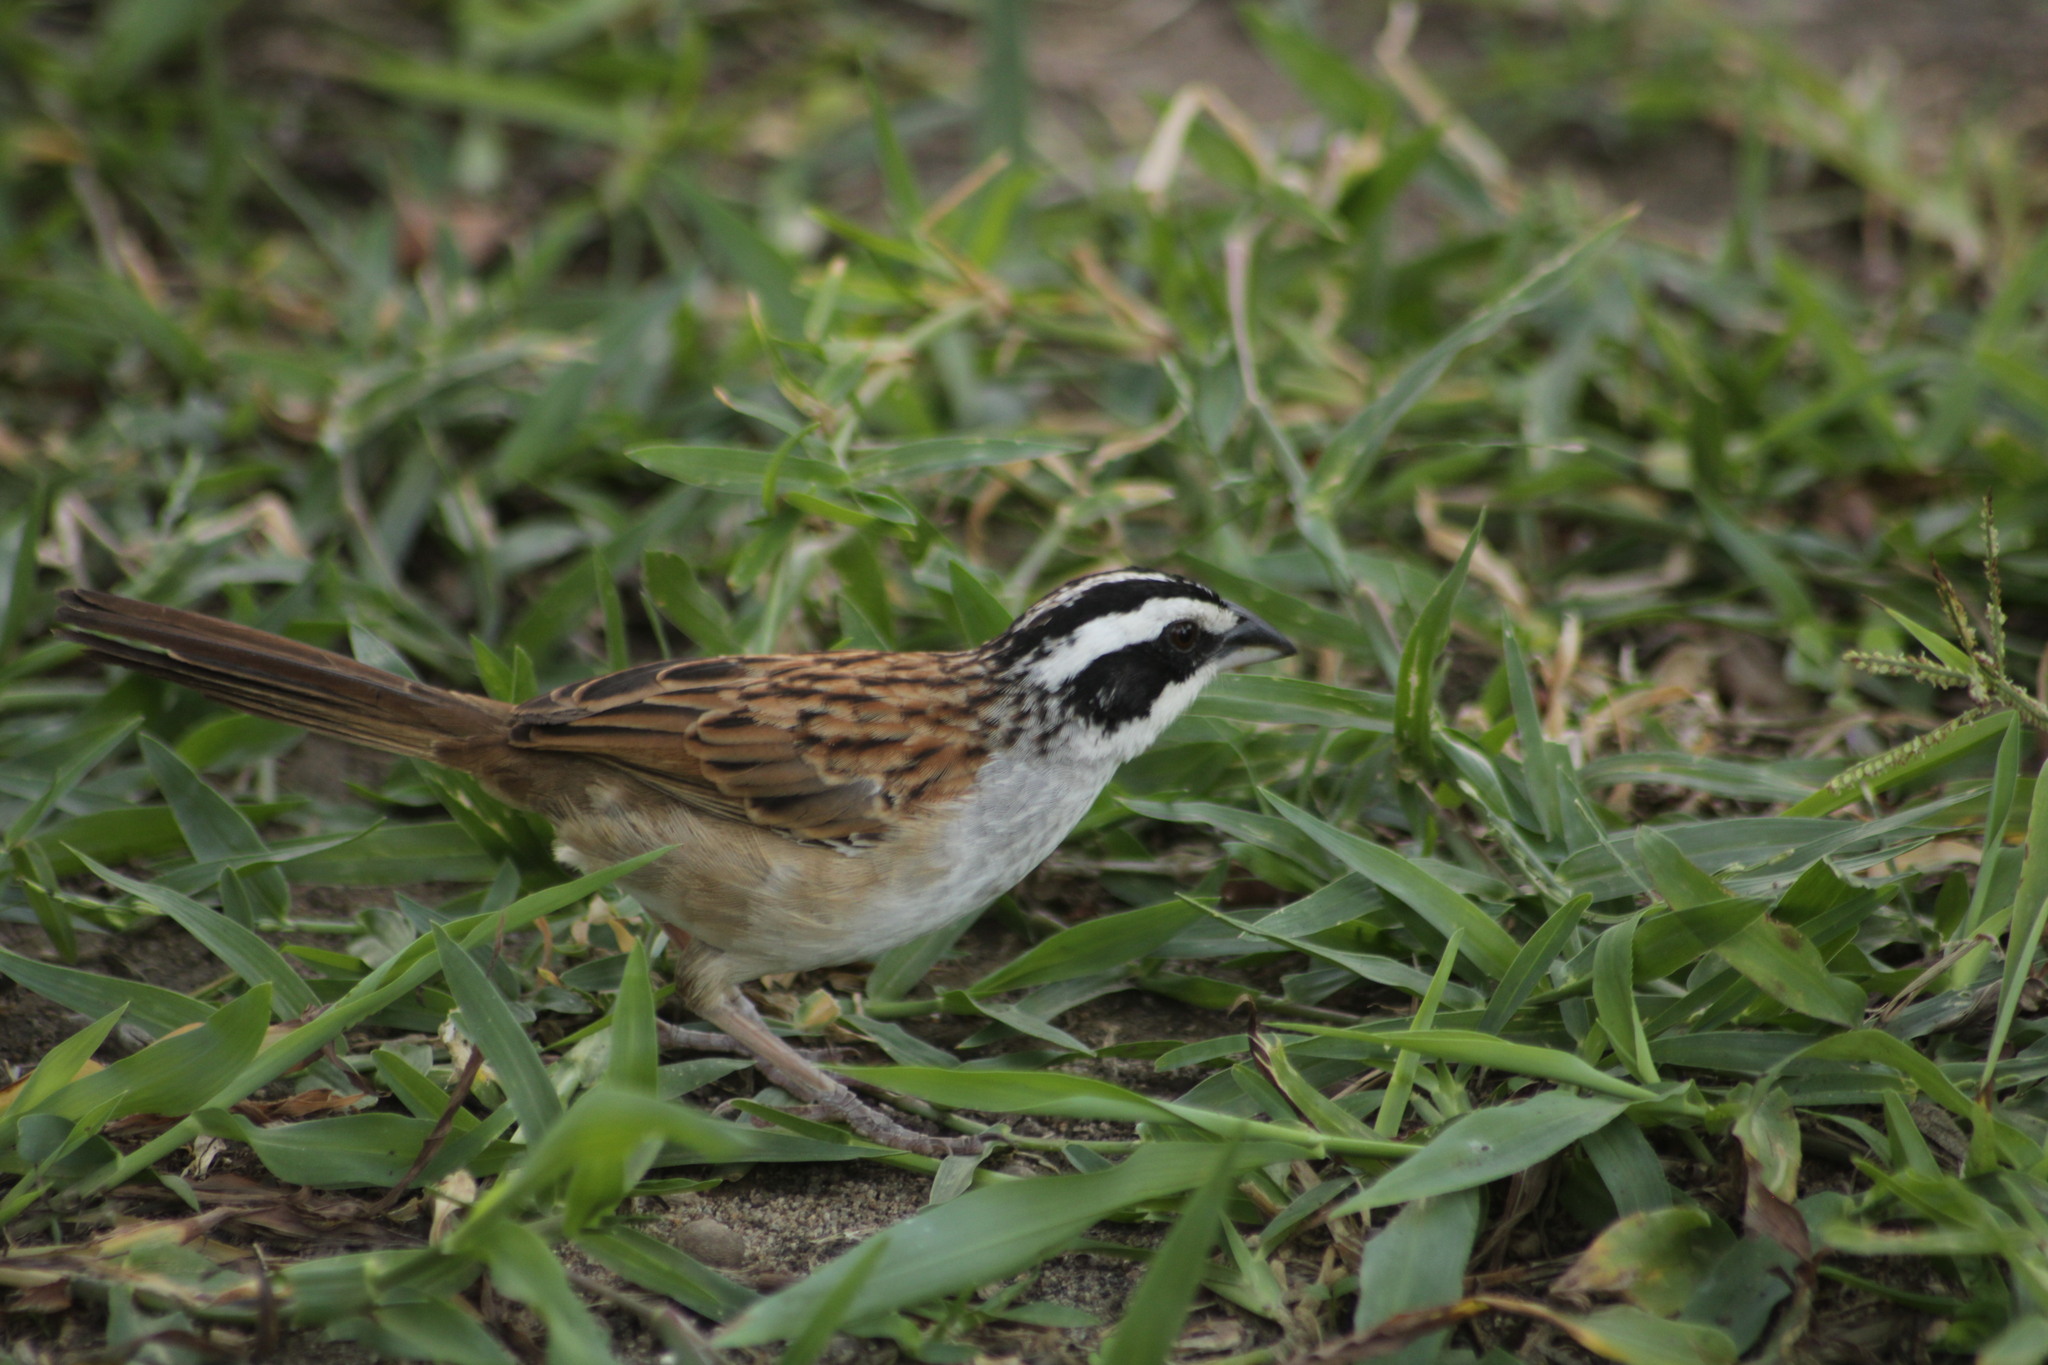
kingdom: Animalia
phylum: Chordata
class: Aves
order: Passeriformes
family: Passerellidae
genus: Peucaea
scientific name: Peucaea ruficauda
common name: Stripe-headed sparrow
